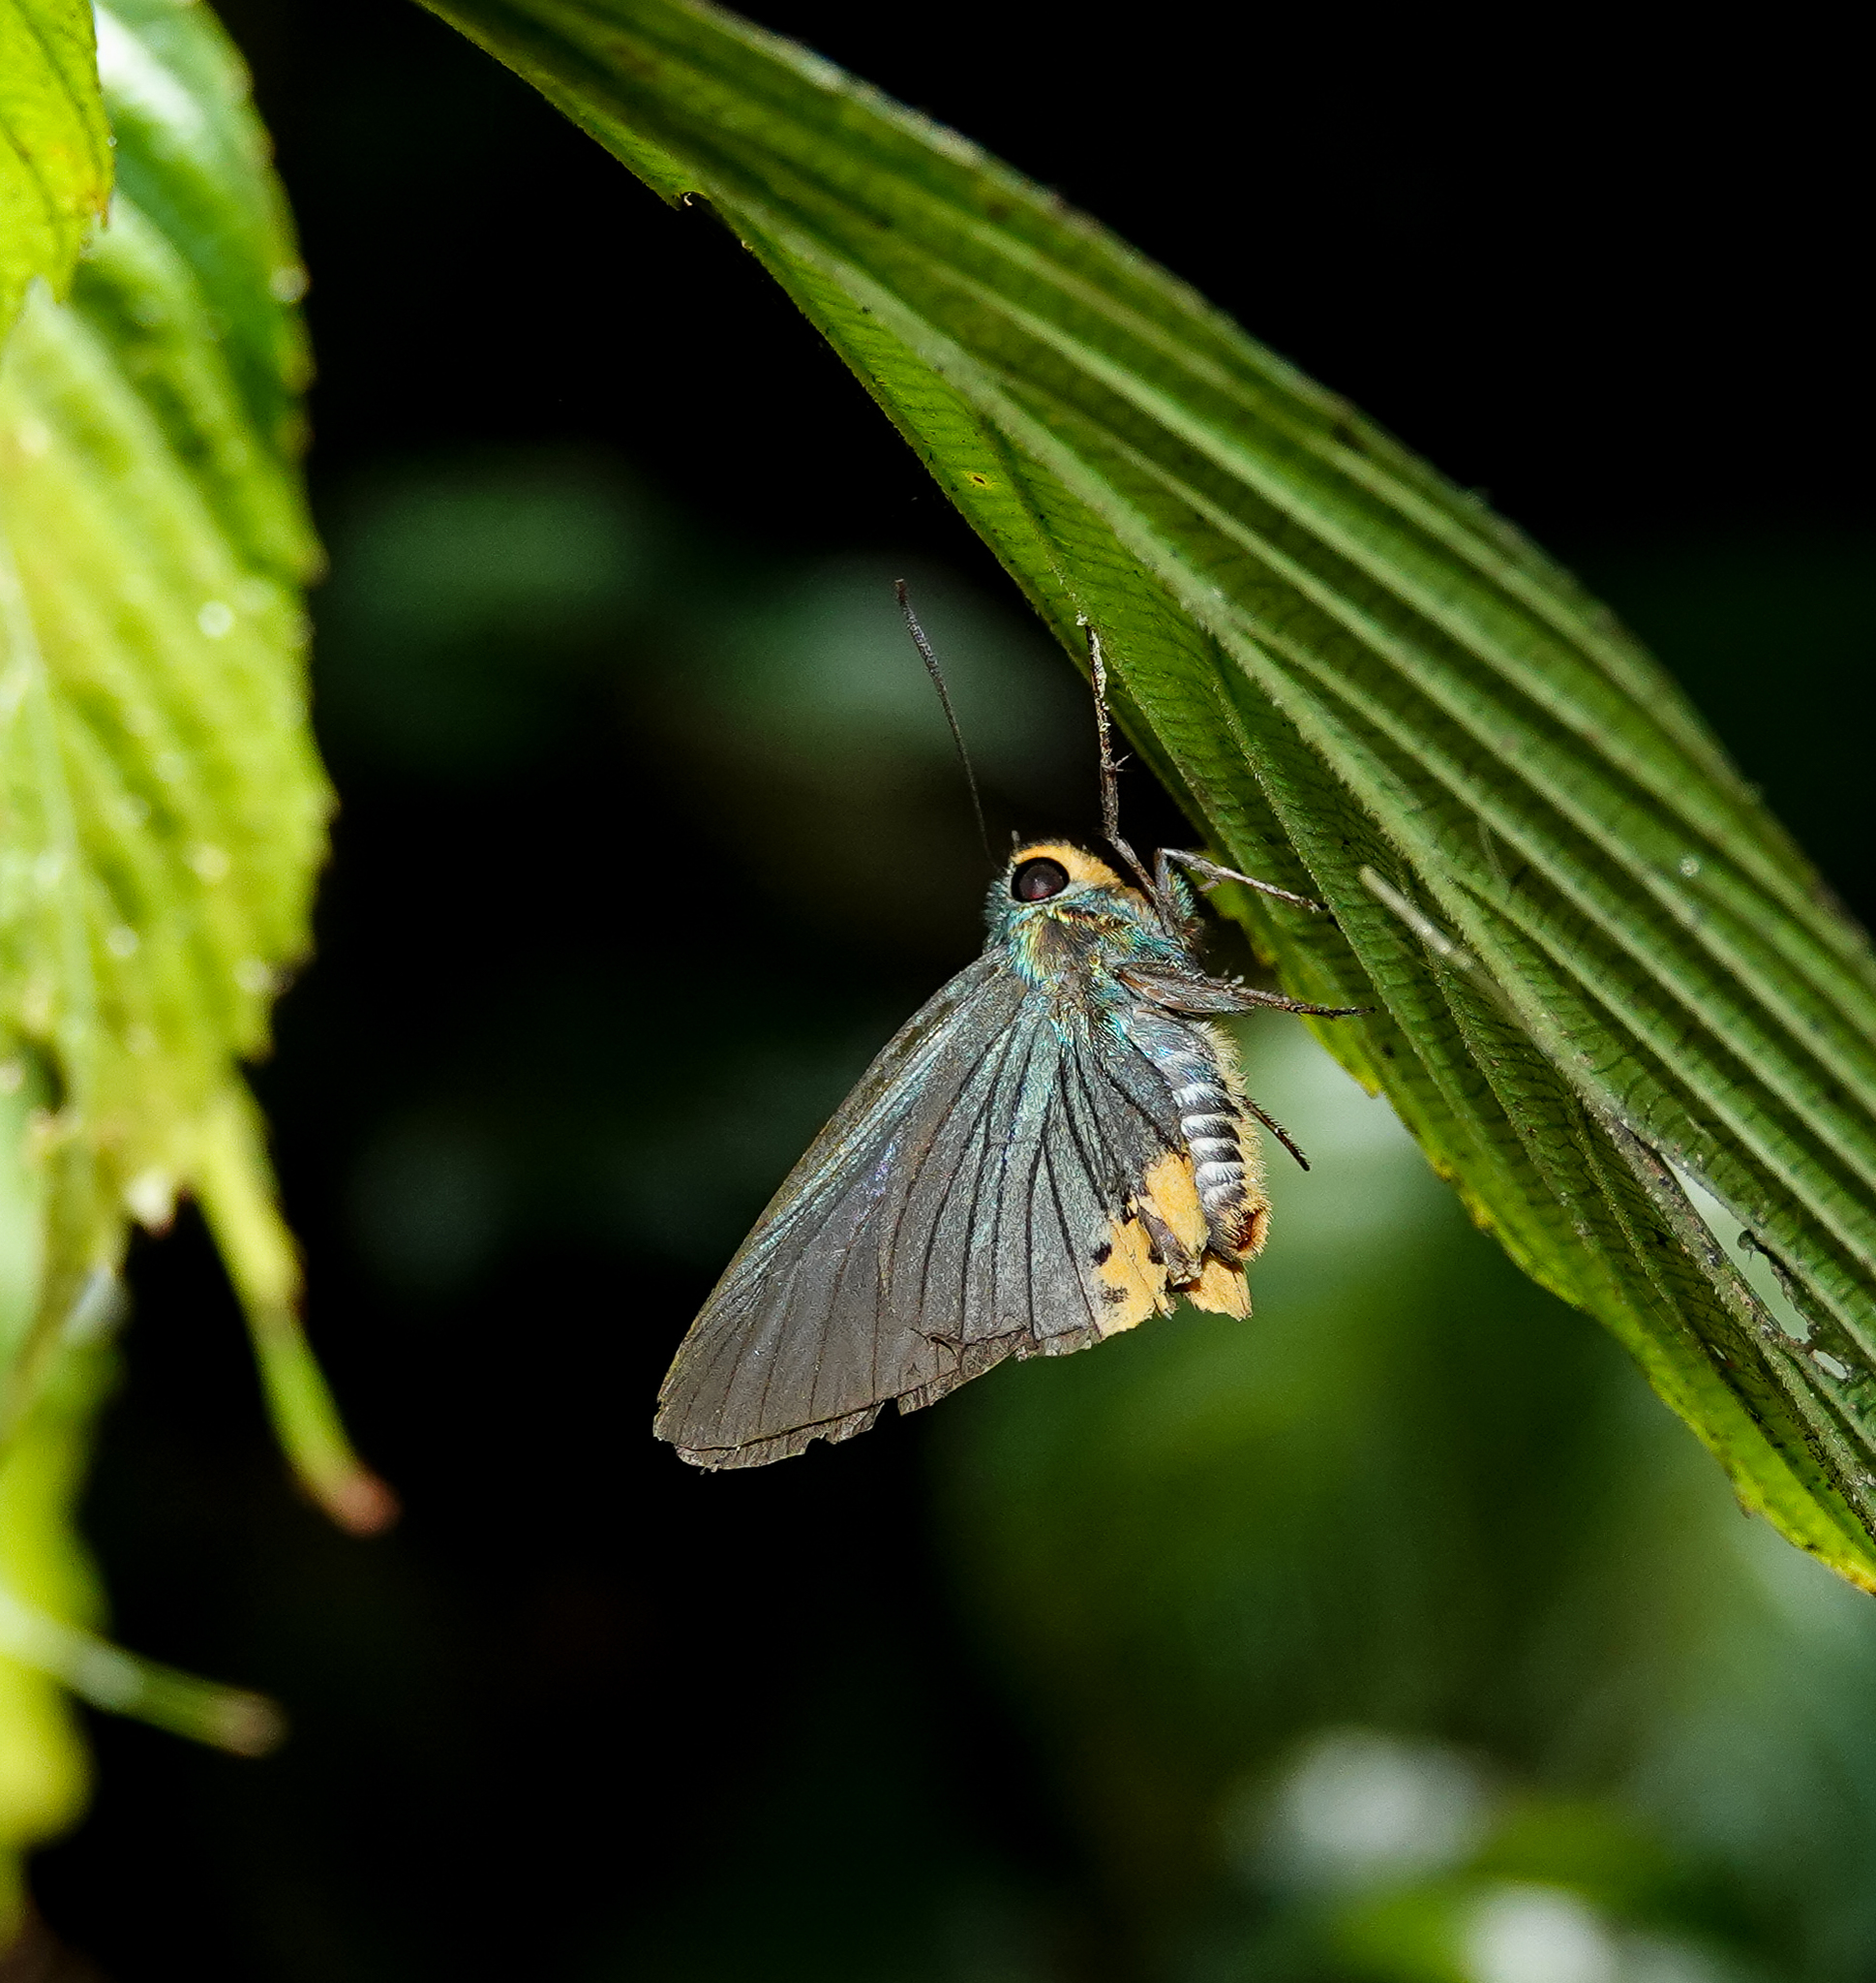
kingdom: Animalia
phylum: Arthropoda
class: Insecta
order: Lepidoptera
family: Hesperiidae
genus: Choaspes
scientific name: Choaspes benjaminii
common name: Indian awlking
